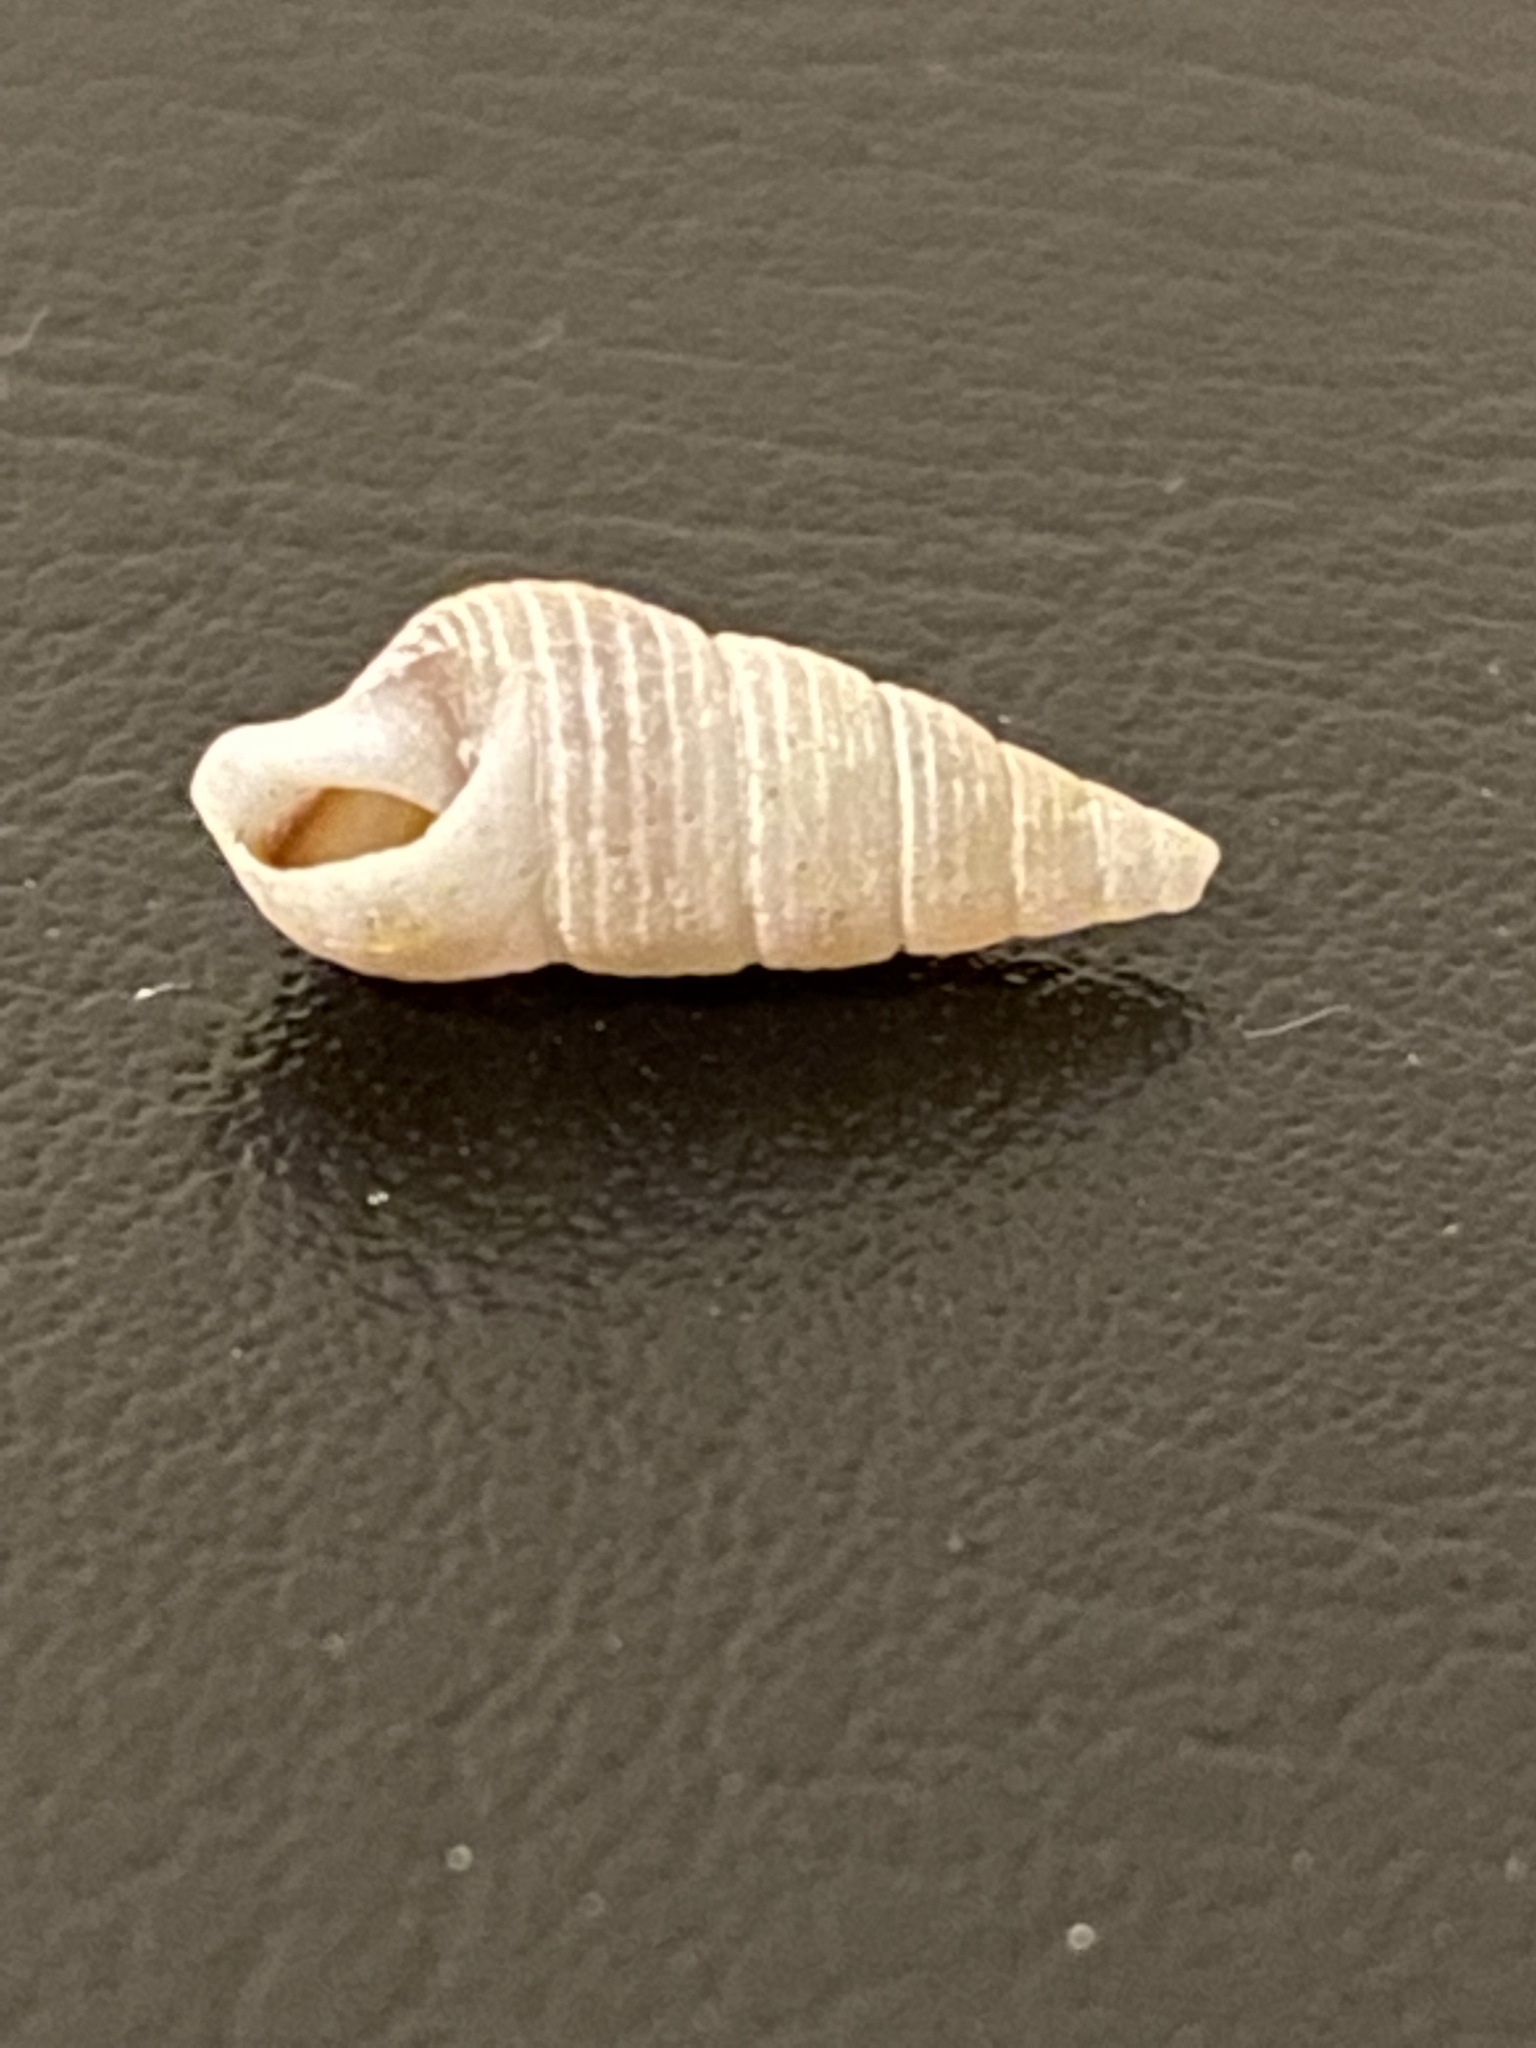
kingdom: Animalia
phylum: Mollusca
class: Gastropoda
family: Cerithiidae
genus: Neostylidium
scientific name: Neostylidium eschrichtii
